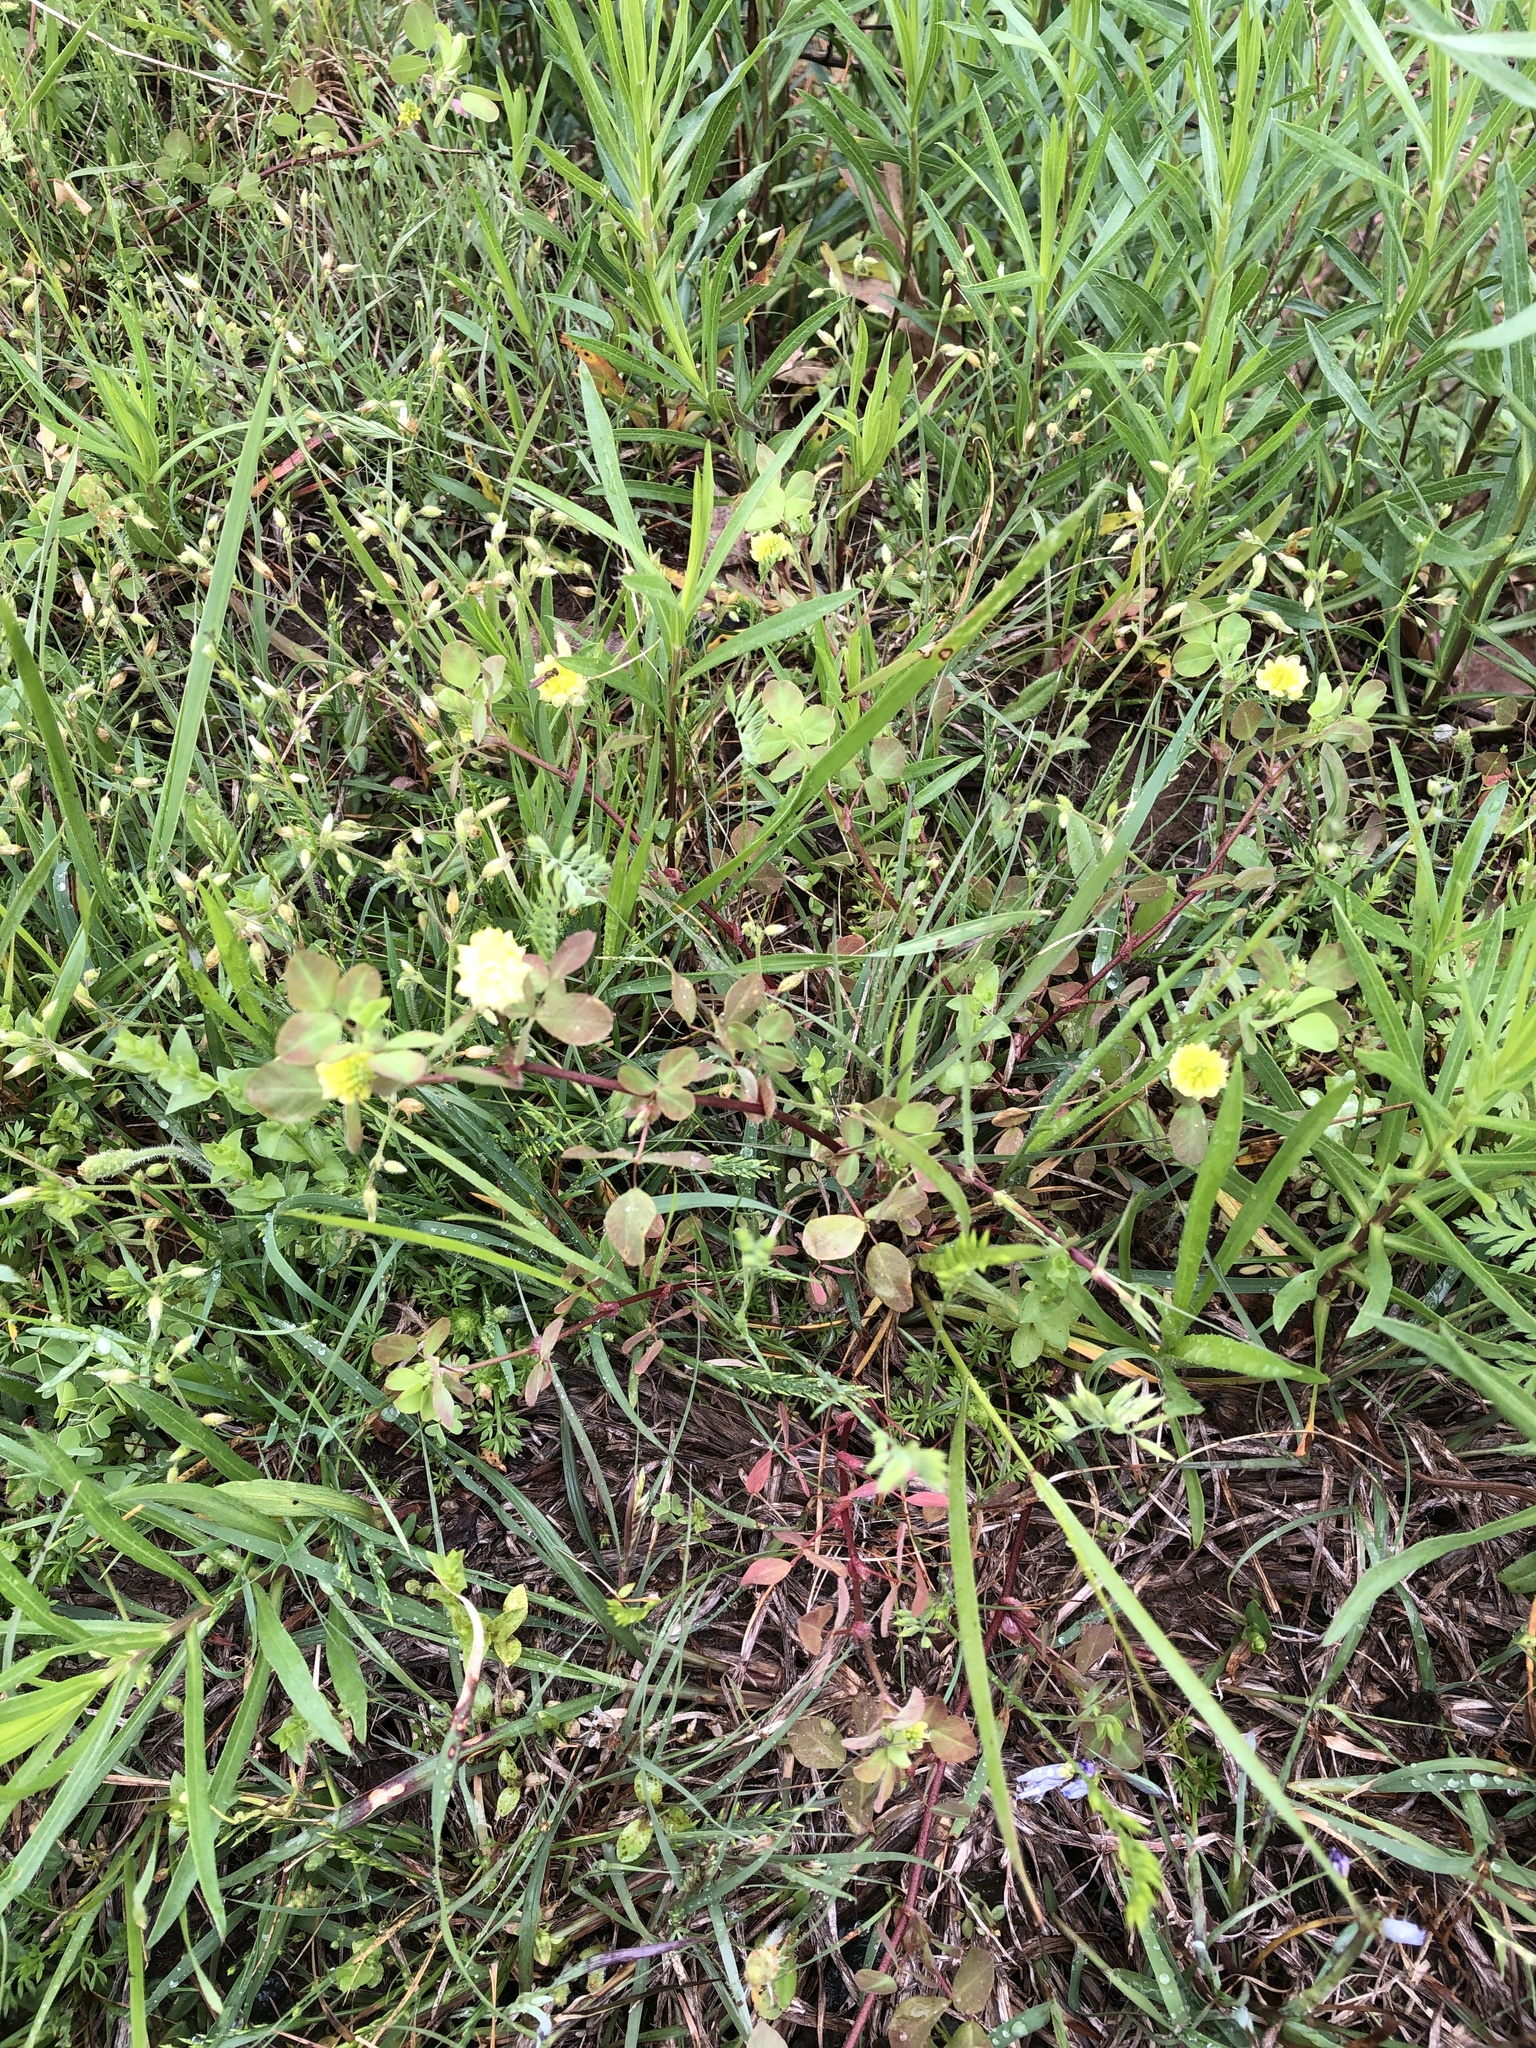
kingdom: Plantae
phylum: Tracheophyta
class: Magnoliopsida
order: Fabales
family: Fabaceae
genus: Trifolium
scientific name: Trifolium campestre
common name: Field clover
